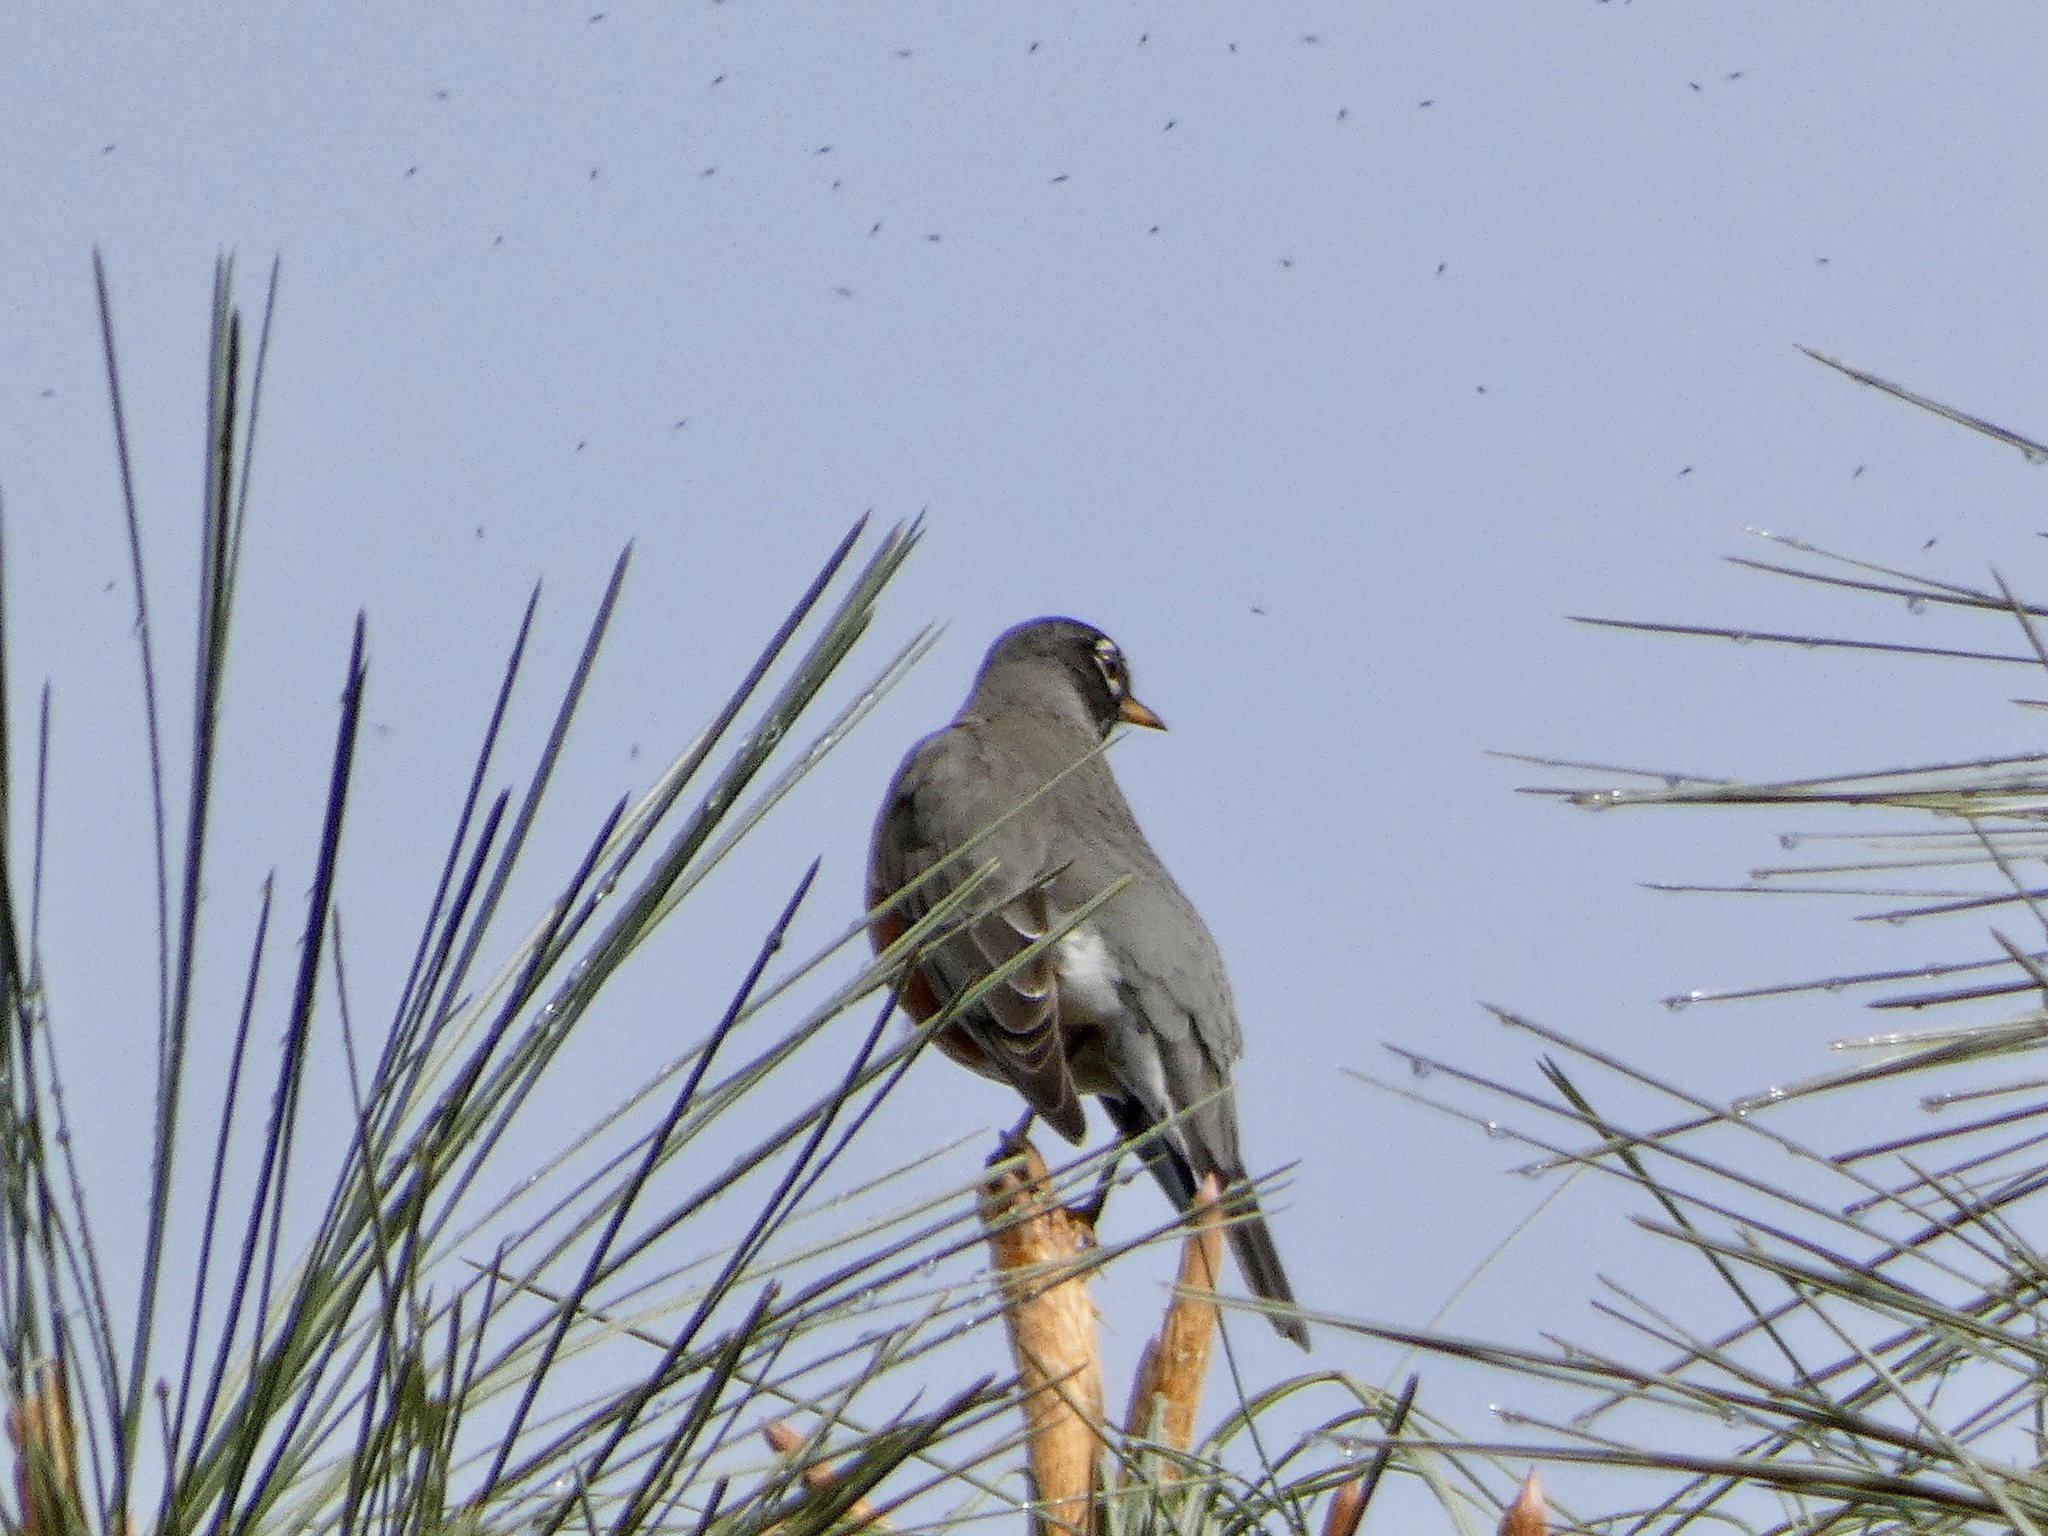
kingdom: Animalia
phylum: Chordata
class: Aves
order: Passeriformes
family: Turdidae
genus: Turdus
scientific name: Turdus migratorius
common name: American robin
